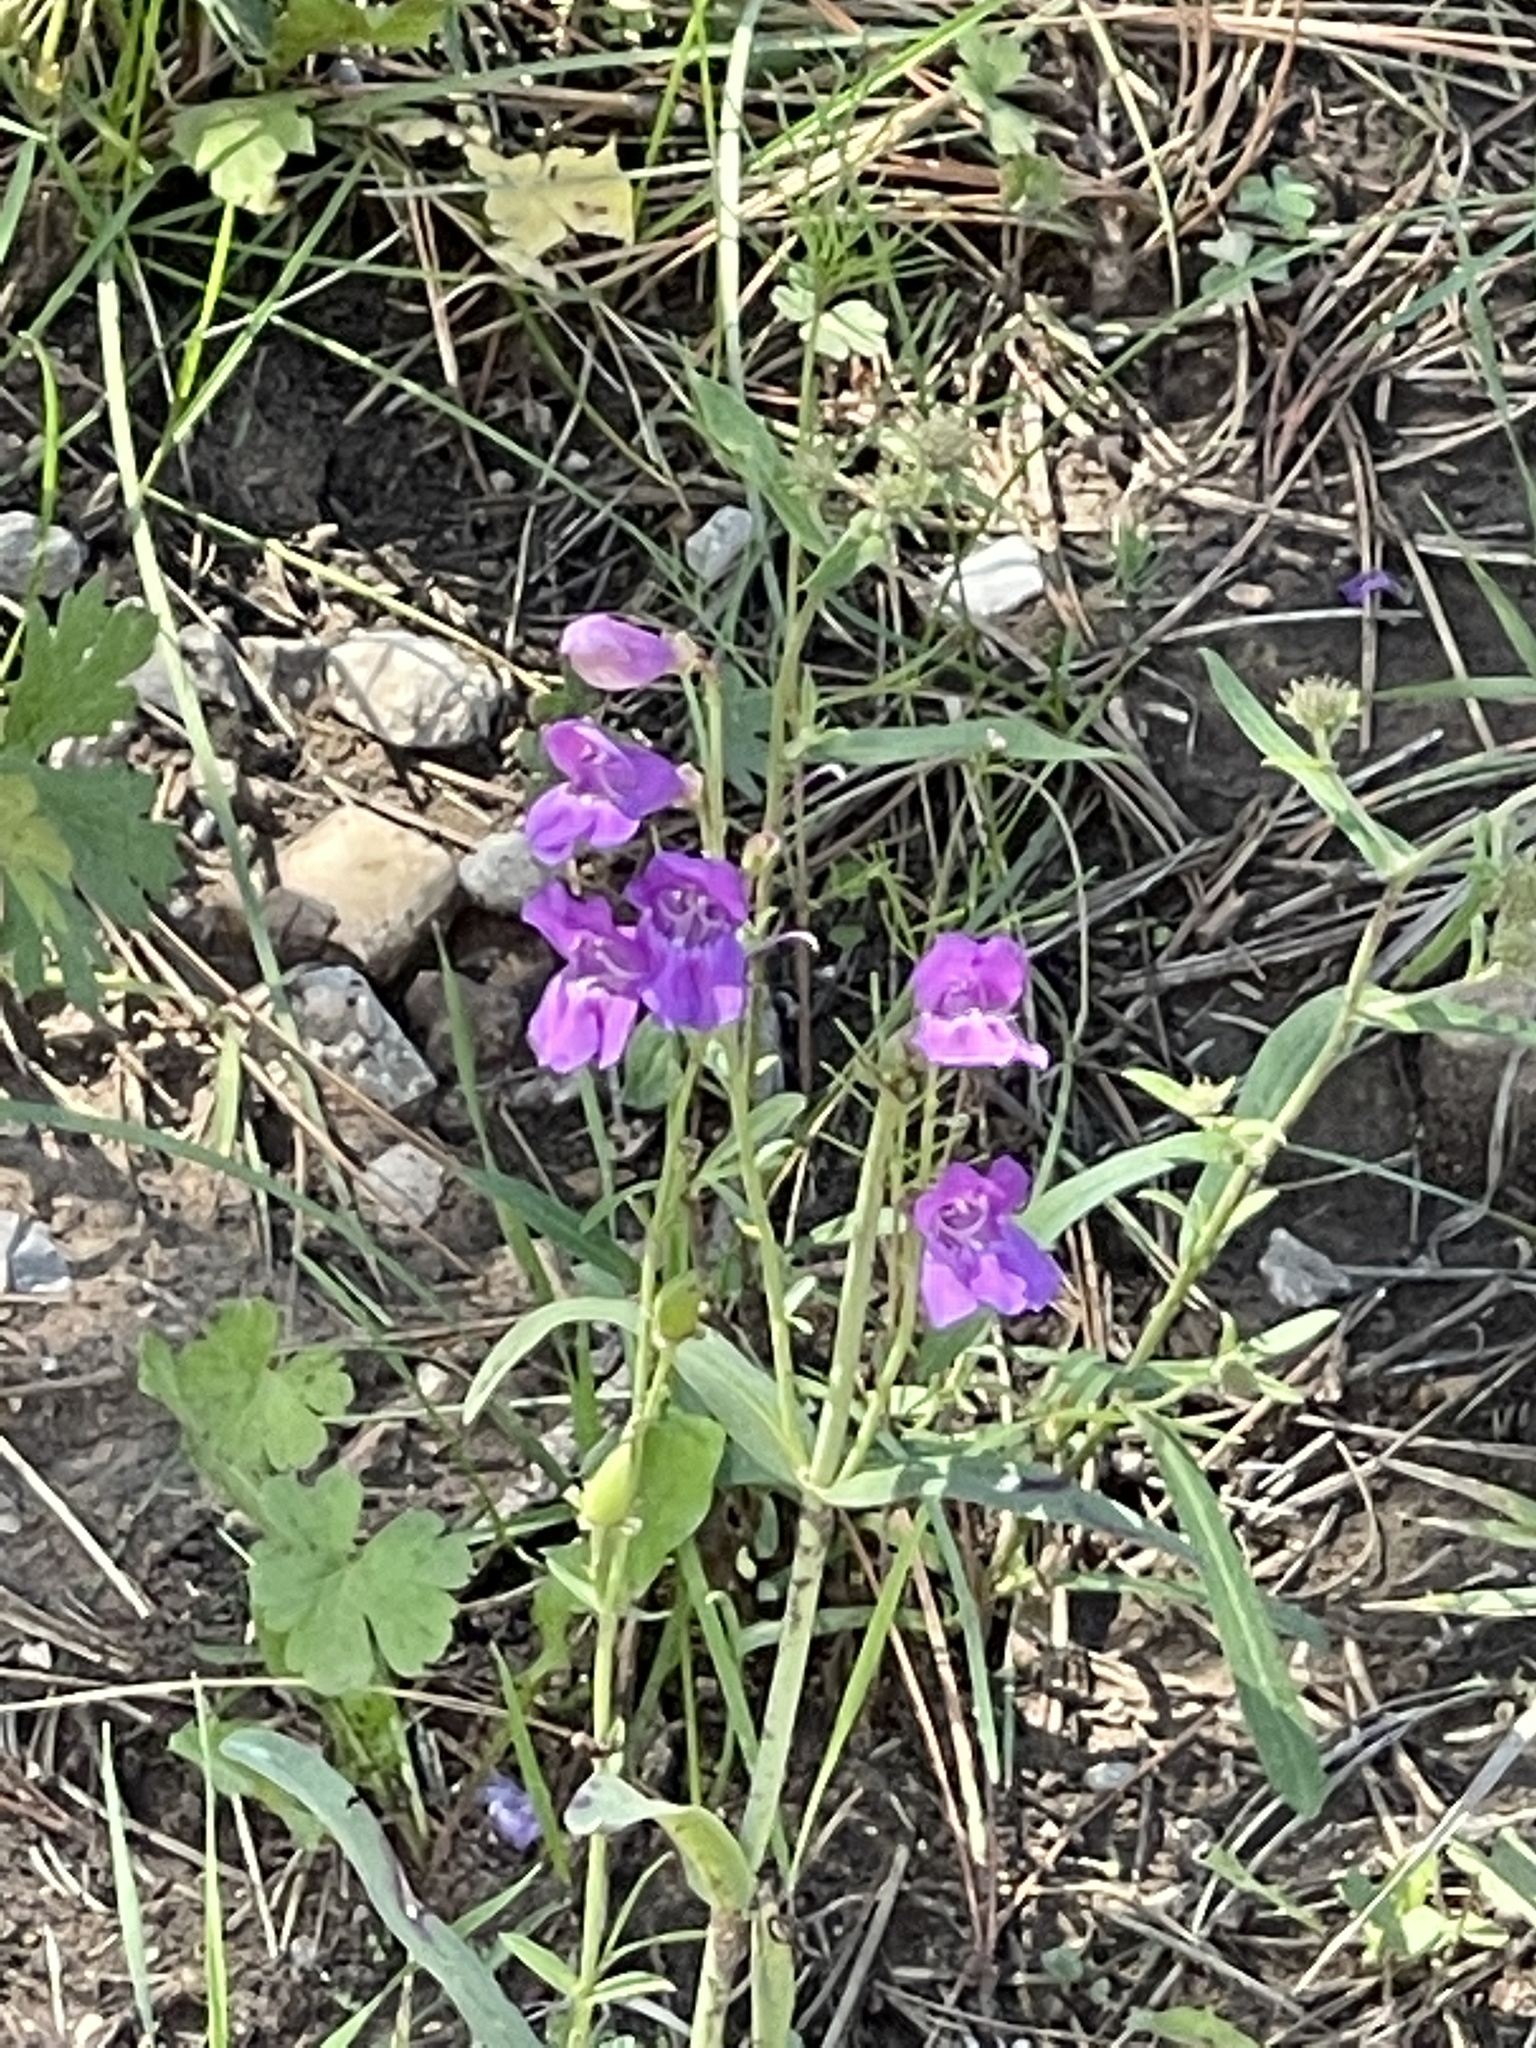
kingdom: Plantae
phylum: Tracheophyta
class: Magnoliopsida
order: Lamiales
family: Plantaginaceae
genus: Penstemon
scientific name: Penstemon neomexicanus
